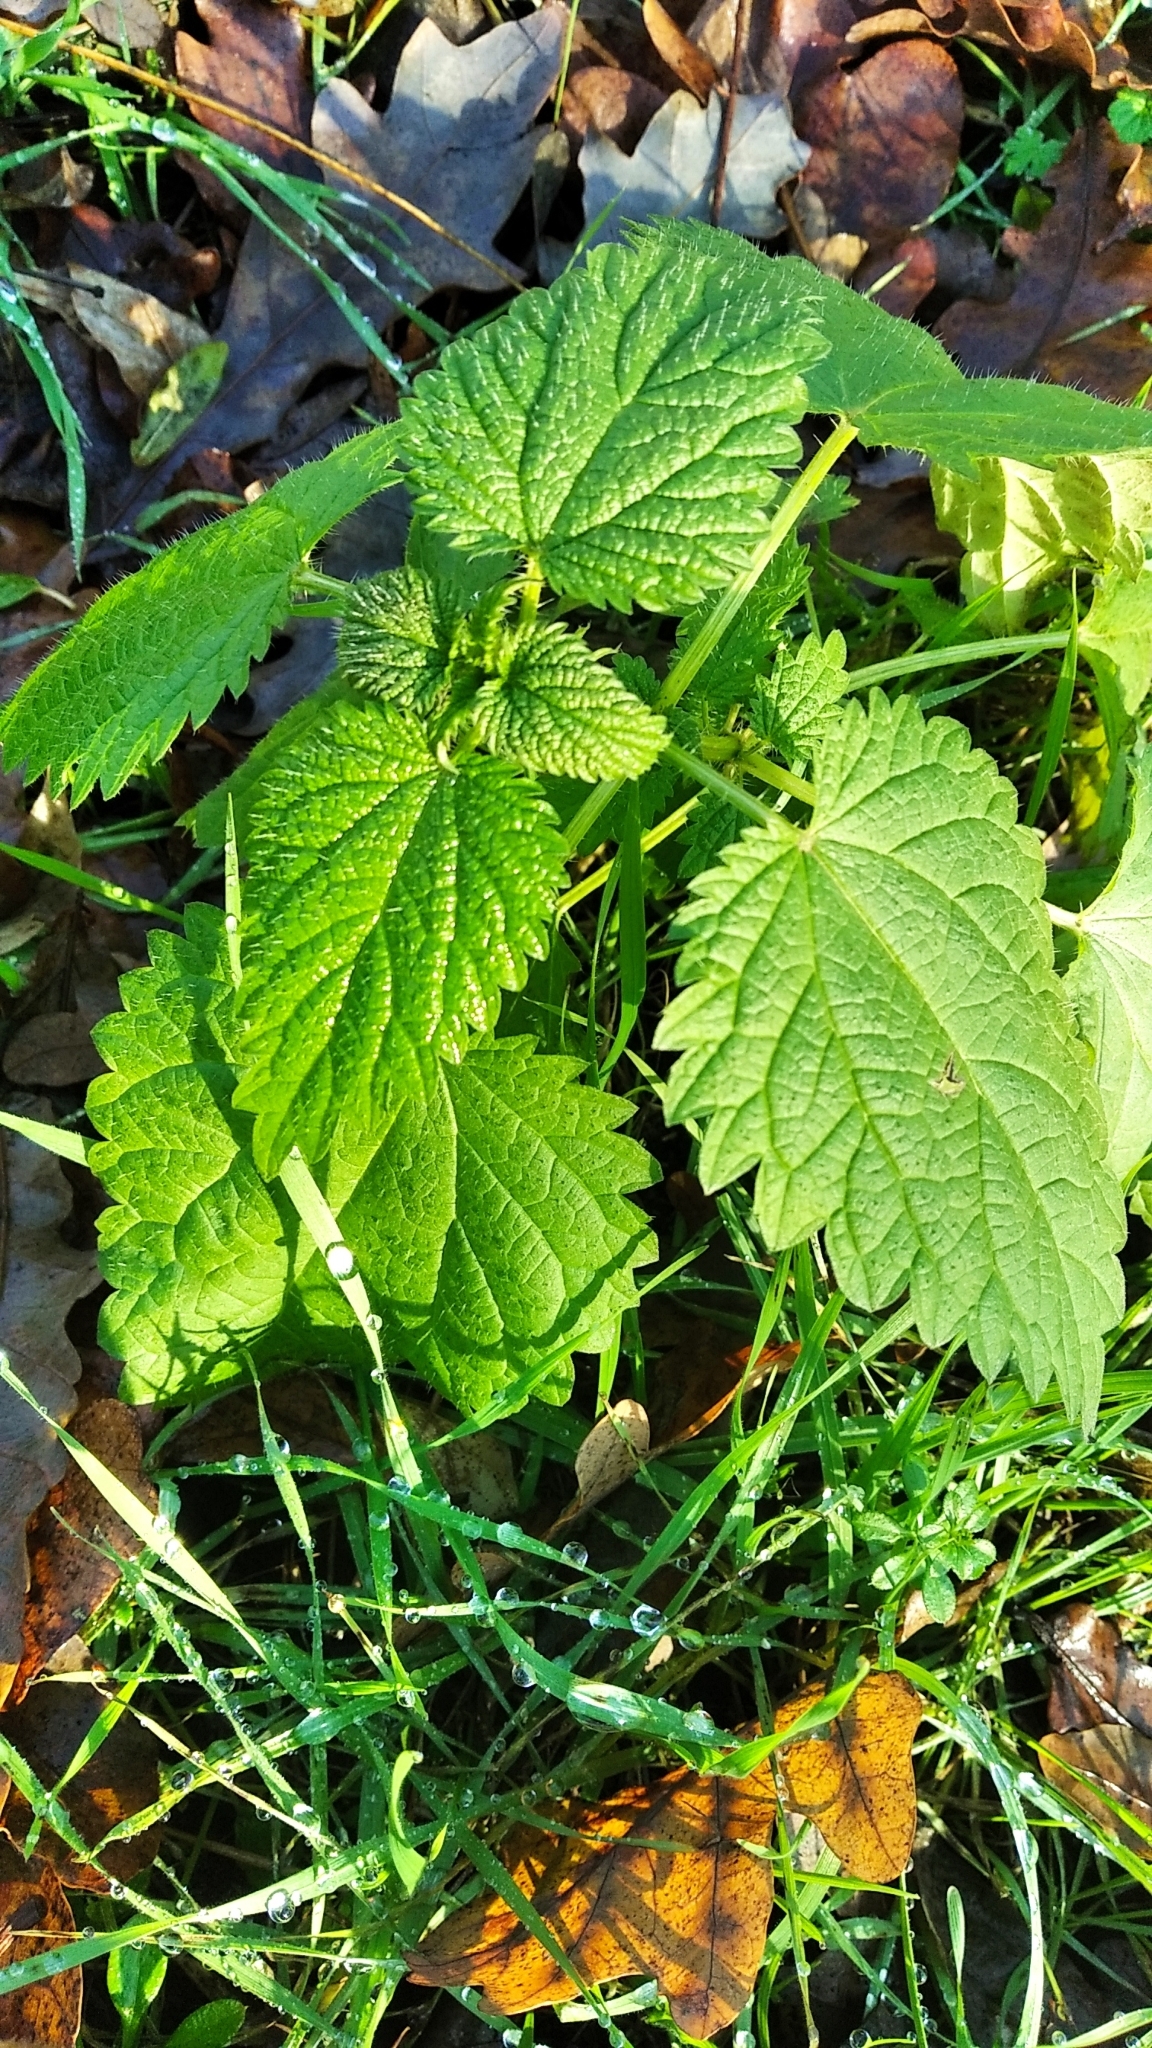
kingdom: Plantae
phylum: Tracheophyta
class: Magnoliopsida
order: Rosales
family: Urticaceae
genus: Urtica
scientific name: Urtica dioica
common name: Common nettle
